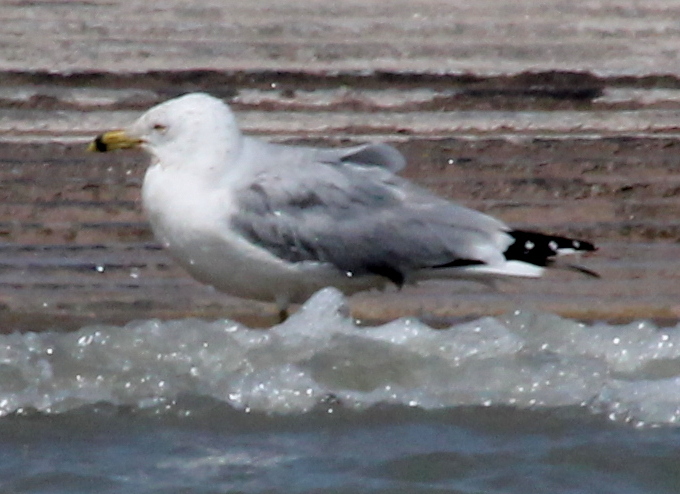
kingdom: Animalia
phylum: Chordata
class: Aves
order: Charadriiformes
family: Laridae
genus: Larus
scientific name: Larus delawarensis
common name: Ring-billed gull
